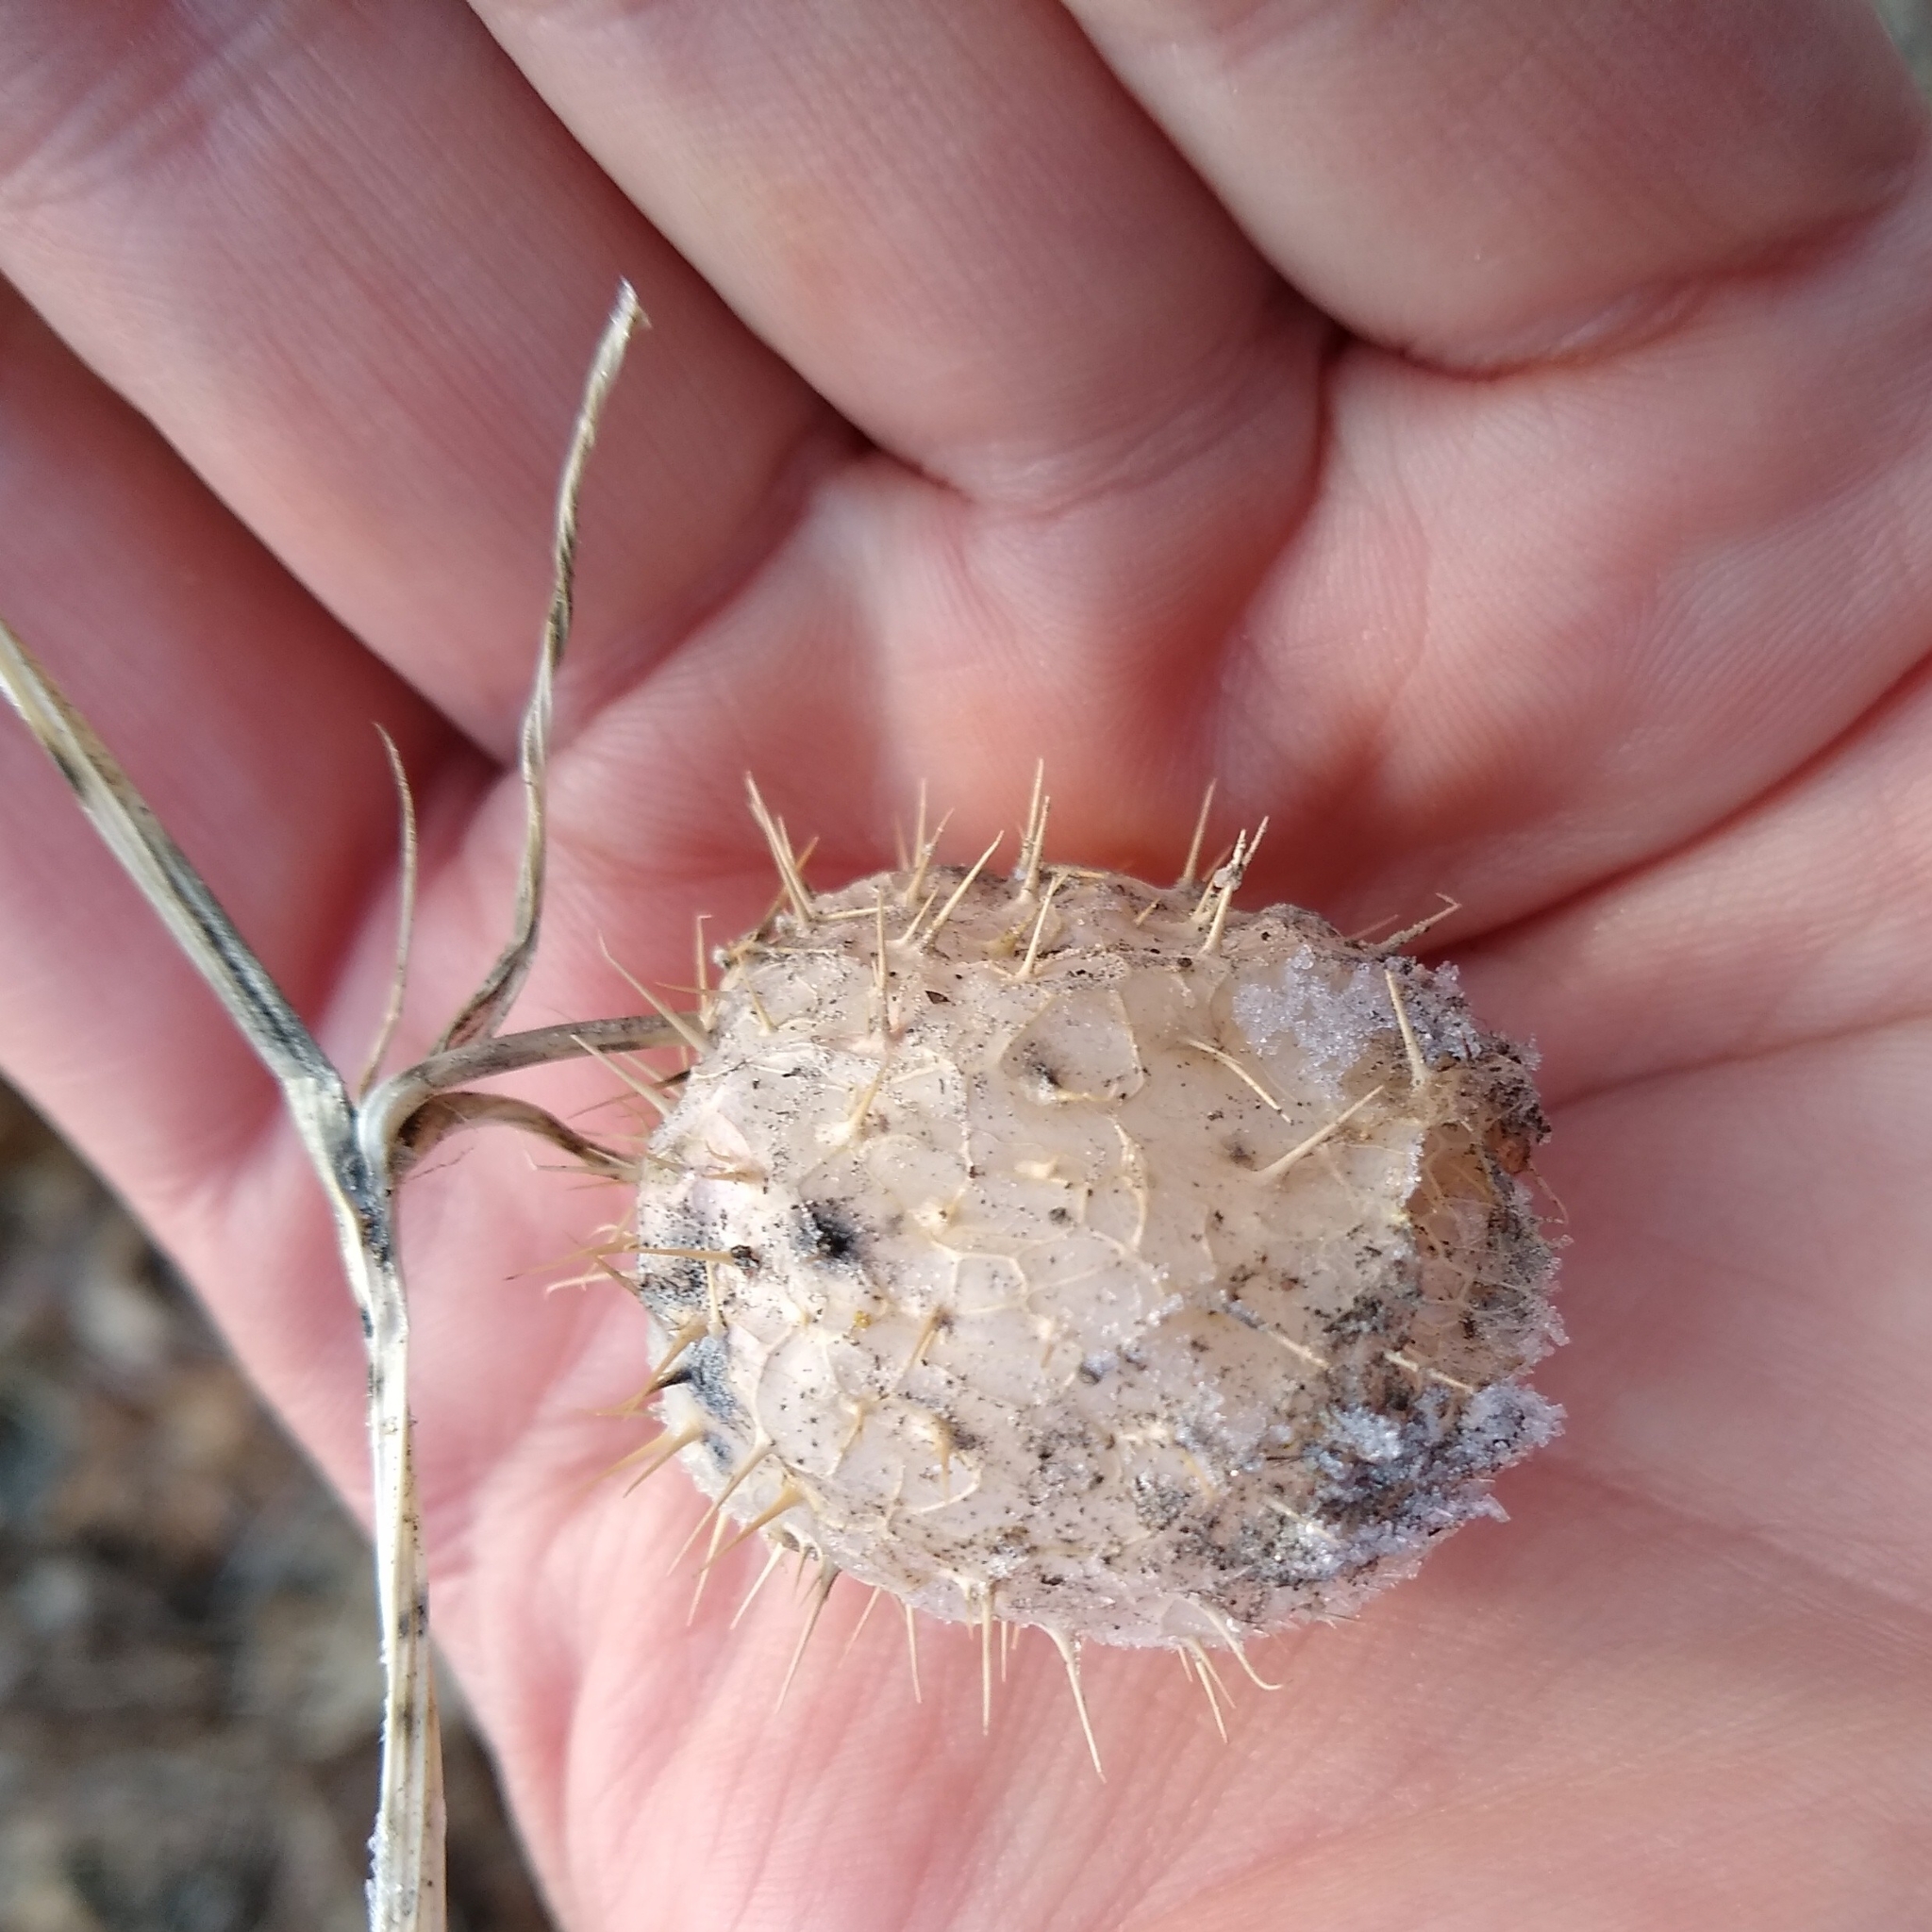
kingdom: Plantae
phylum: Tracheophyta
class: Magnoliopsida
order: Cucurbitales
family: Cucurbitaceae
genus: Echinocystis
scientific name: Echinocystis lobata
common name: Wild cucumber
